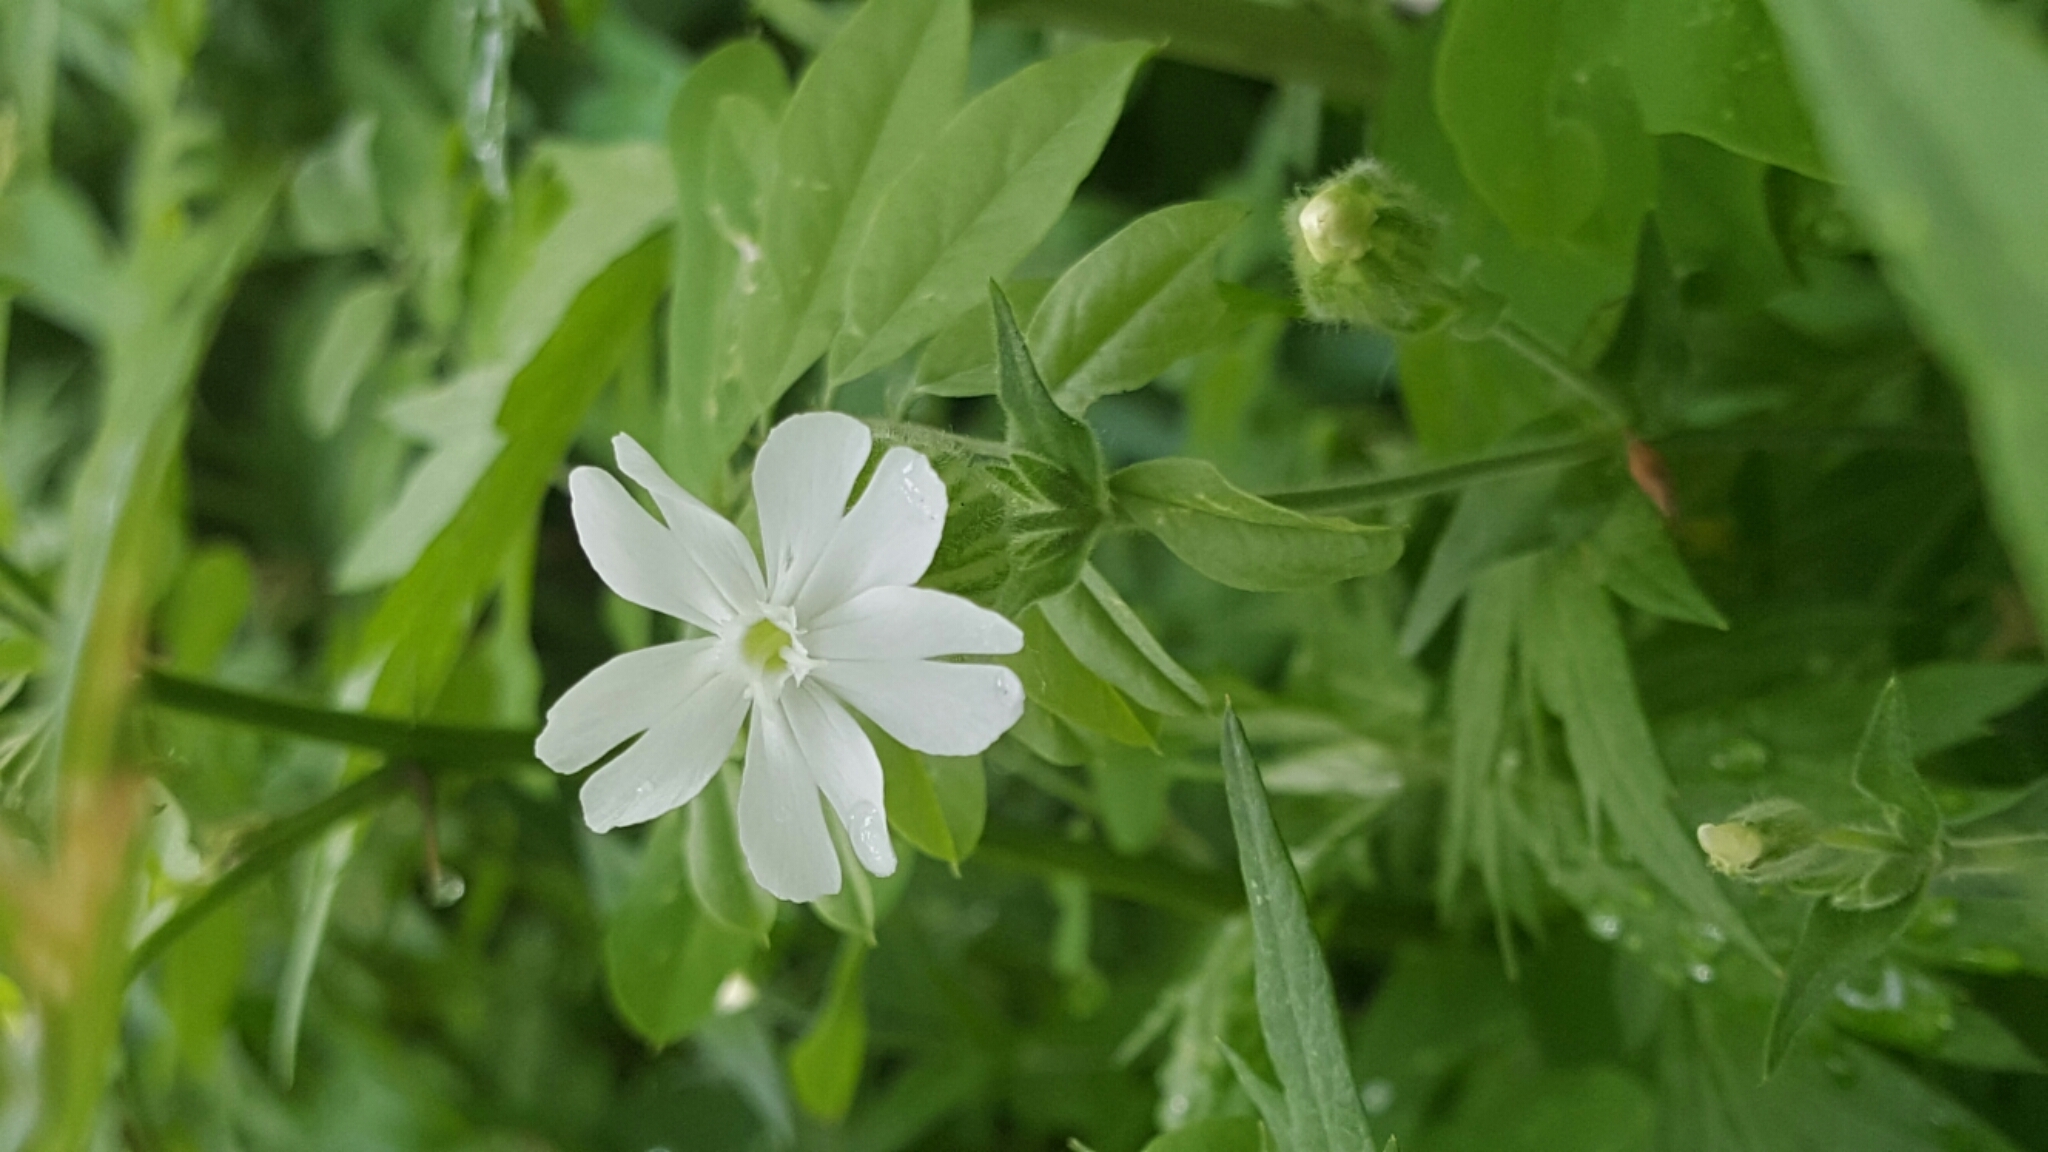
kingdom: Plantae
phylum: Tracheophyta
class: Magnoliopsida
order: Caryophyllales
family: Caryophyllaceae
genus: Silene
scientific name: Silene latifolia
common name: White campion
